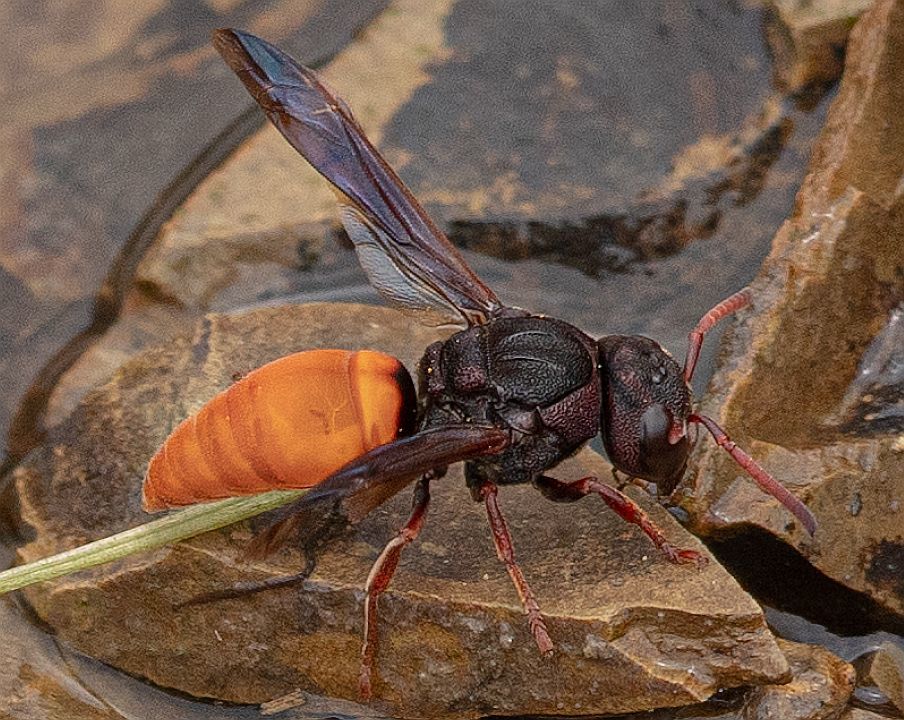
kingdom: Animalia
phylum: Arthropoda
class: Insecta
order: Hymenoptera
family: Eumenidae
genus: Tricarinodynerus
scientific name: Tricarinodynerus guerinii
